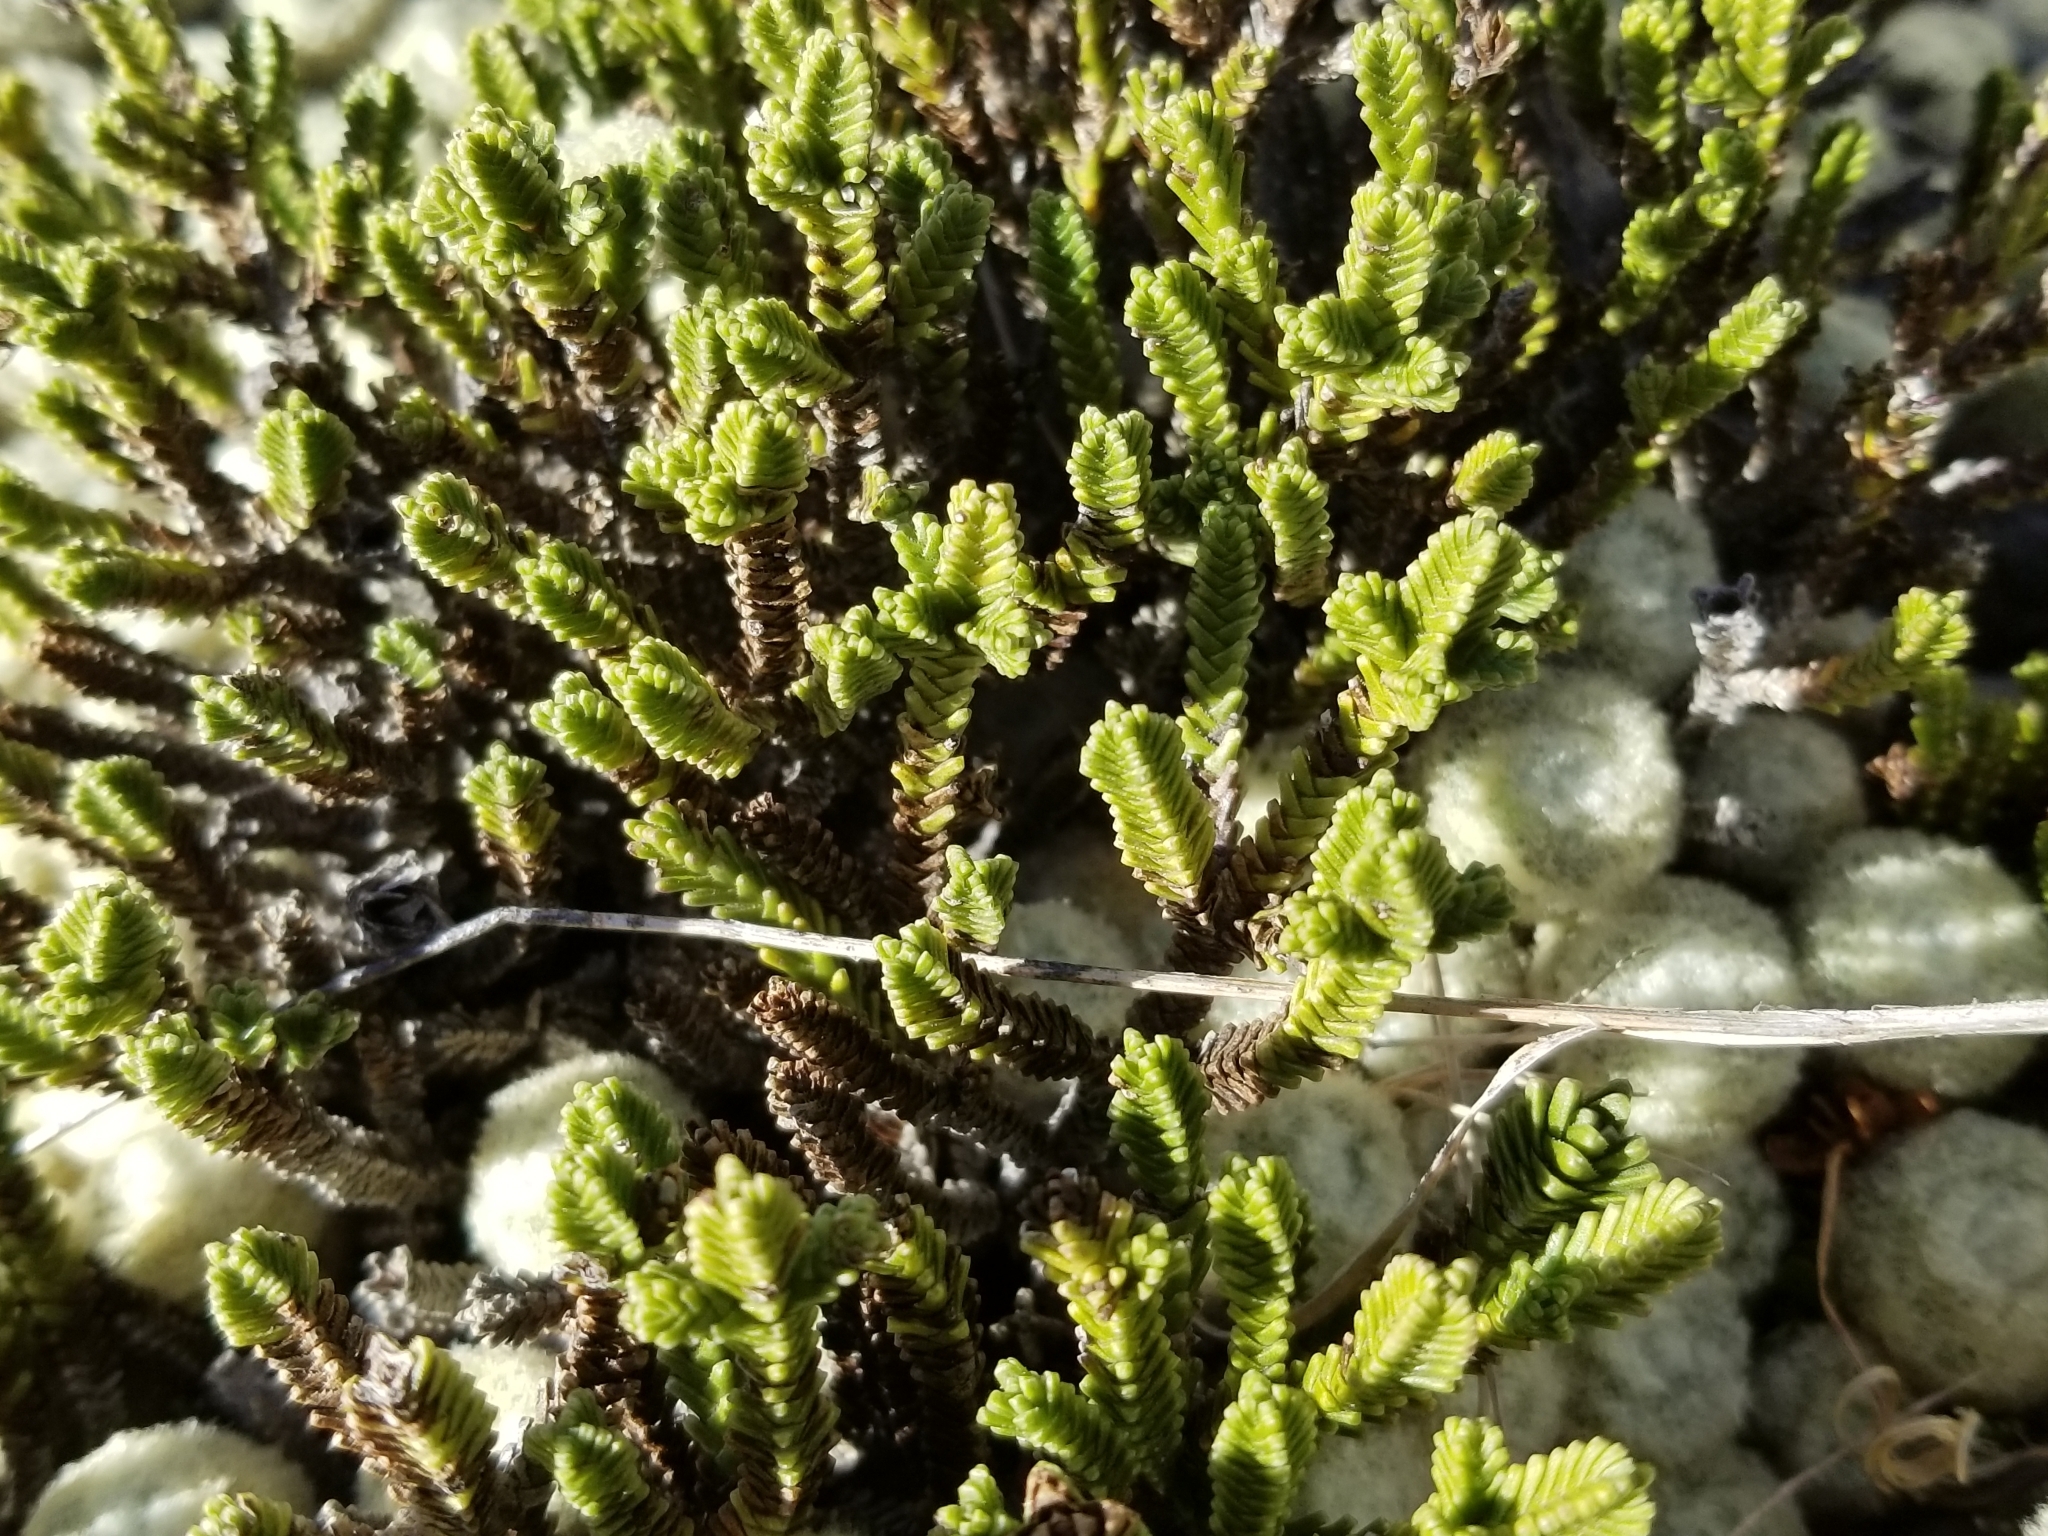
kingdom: Plantae
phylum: Tracheophyta
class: Magnoliopsida
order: Lamiales
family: Plantaginaceae
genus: Veronica
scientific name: Veronica hookeri
